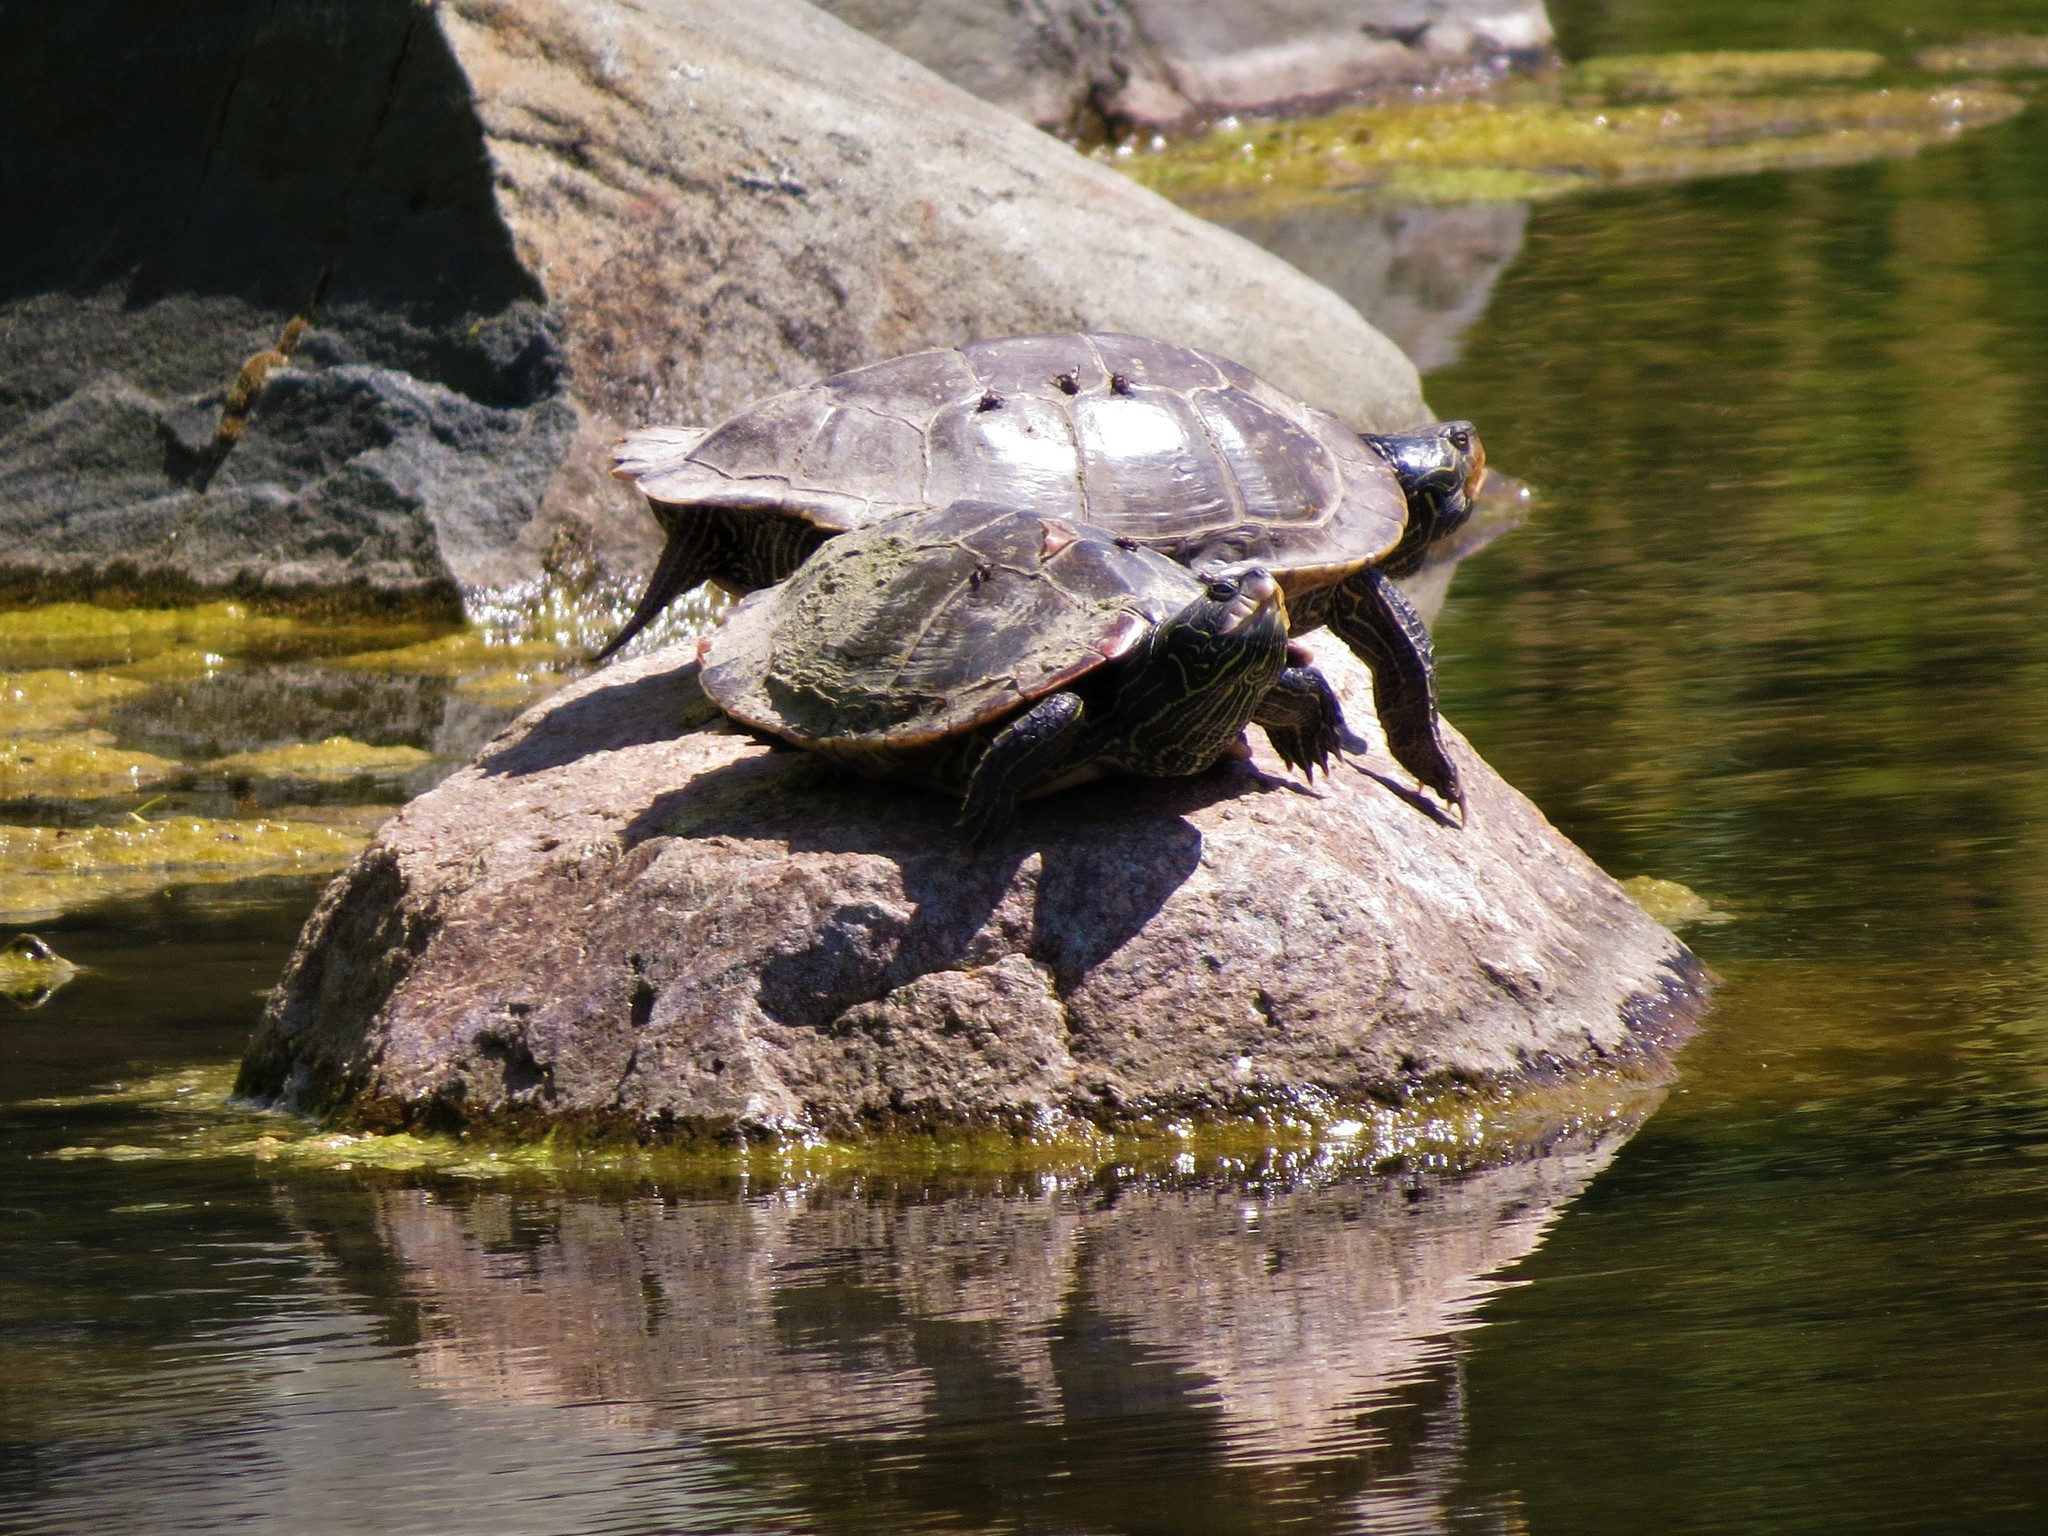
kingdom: Animalia
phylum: Chordata
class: Testudines
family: Emydidae
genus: Graptemys
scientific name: Graptemys geographica
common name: Common map turtle
